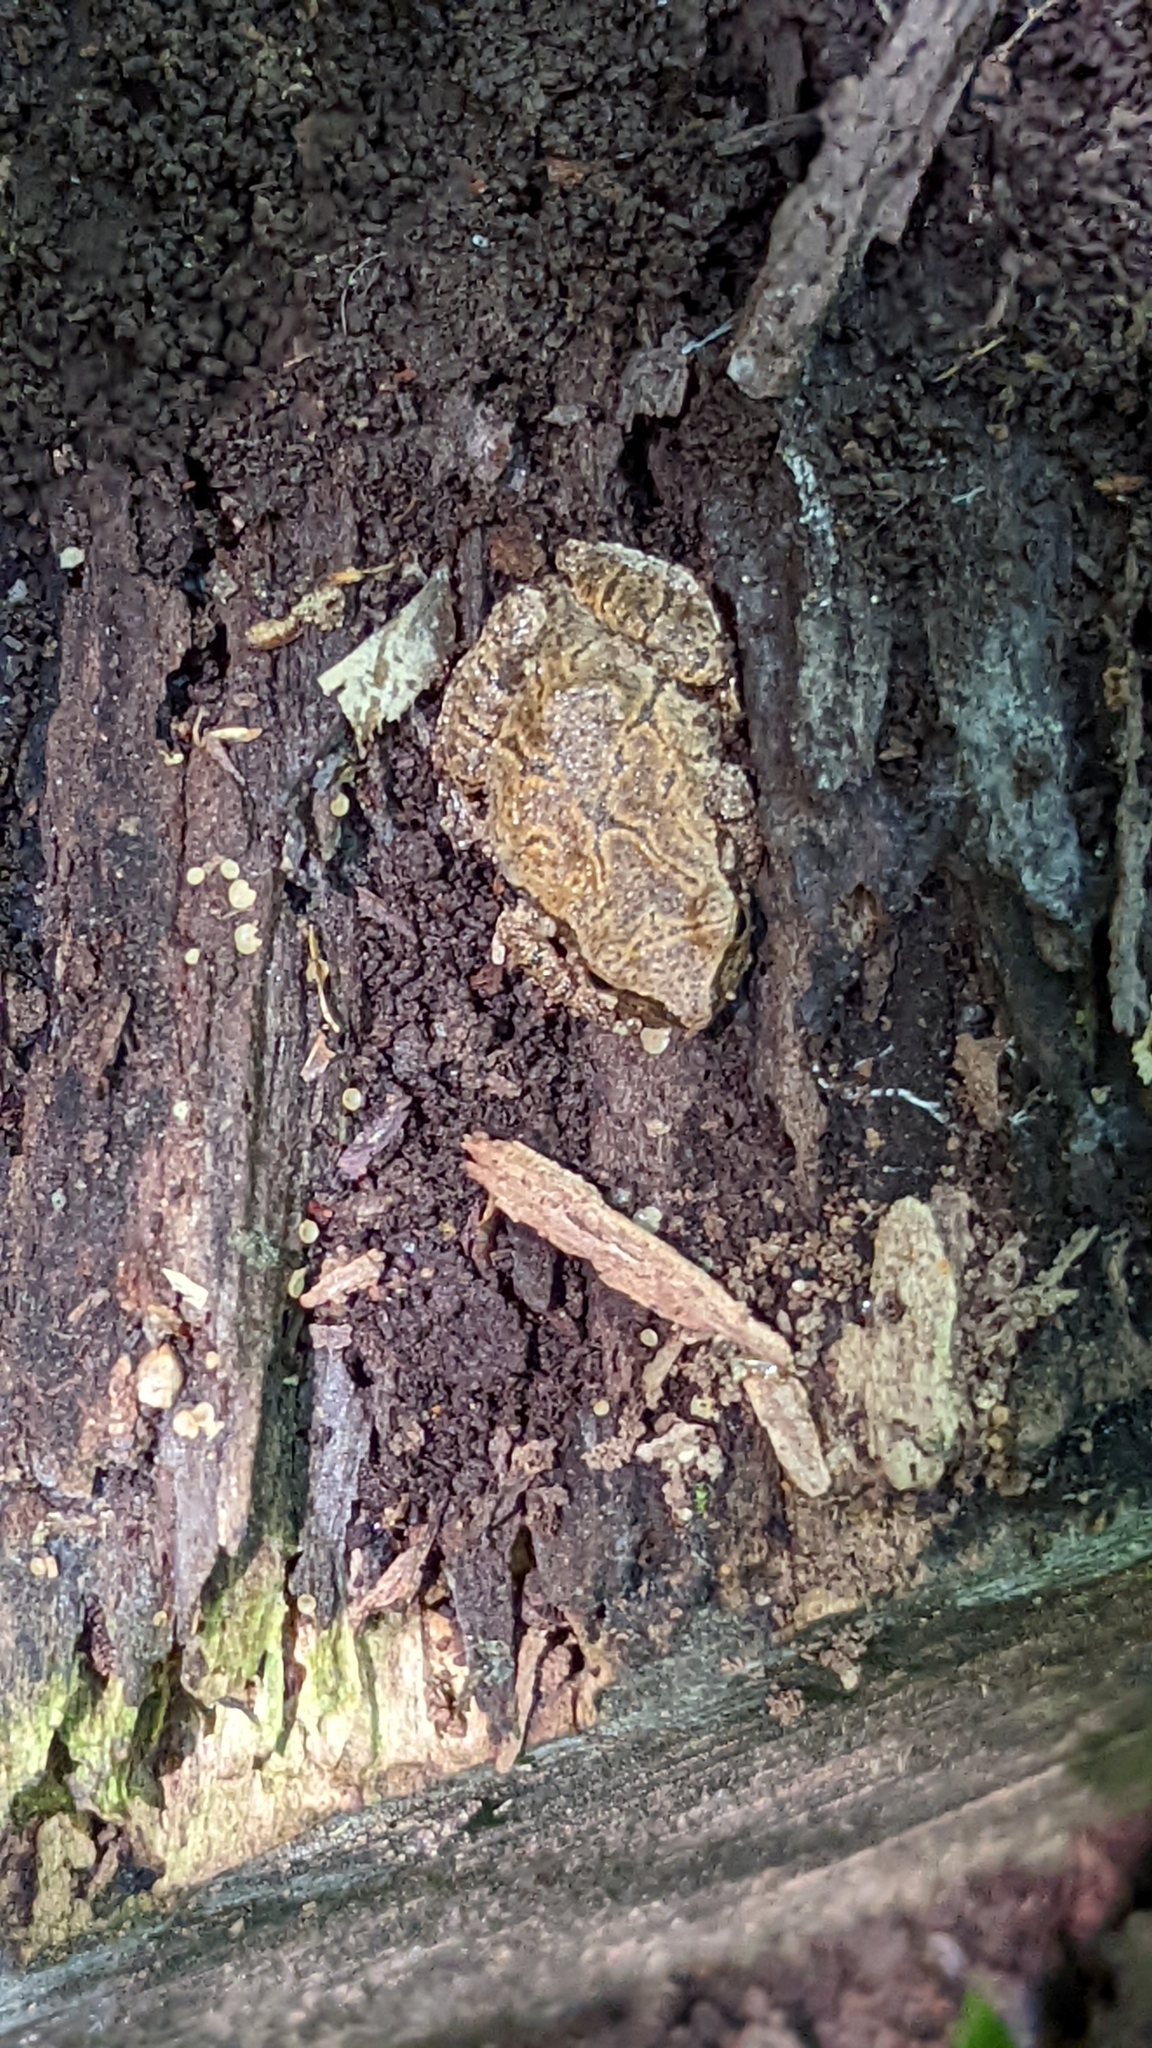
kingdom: Animalia
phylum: Chordata
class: Amphibia
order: Anura
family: Hylidae
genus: Pseudacris
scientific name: Pseudacris crucifer
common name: Spring peeper
